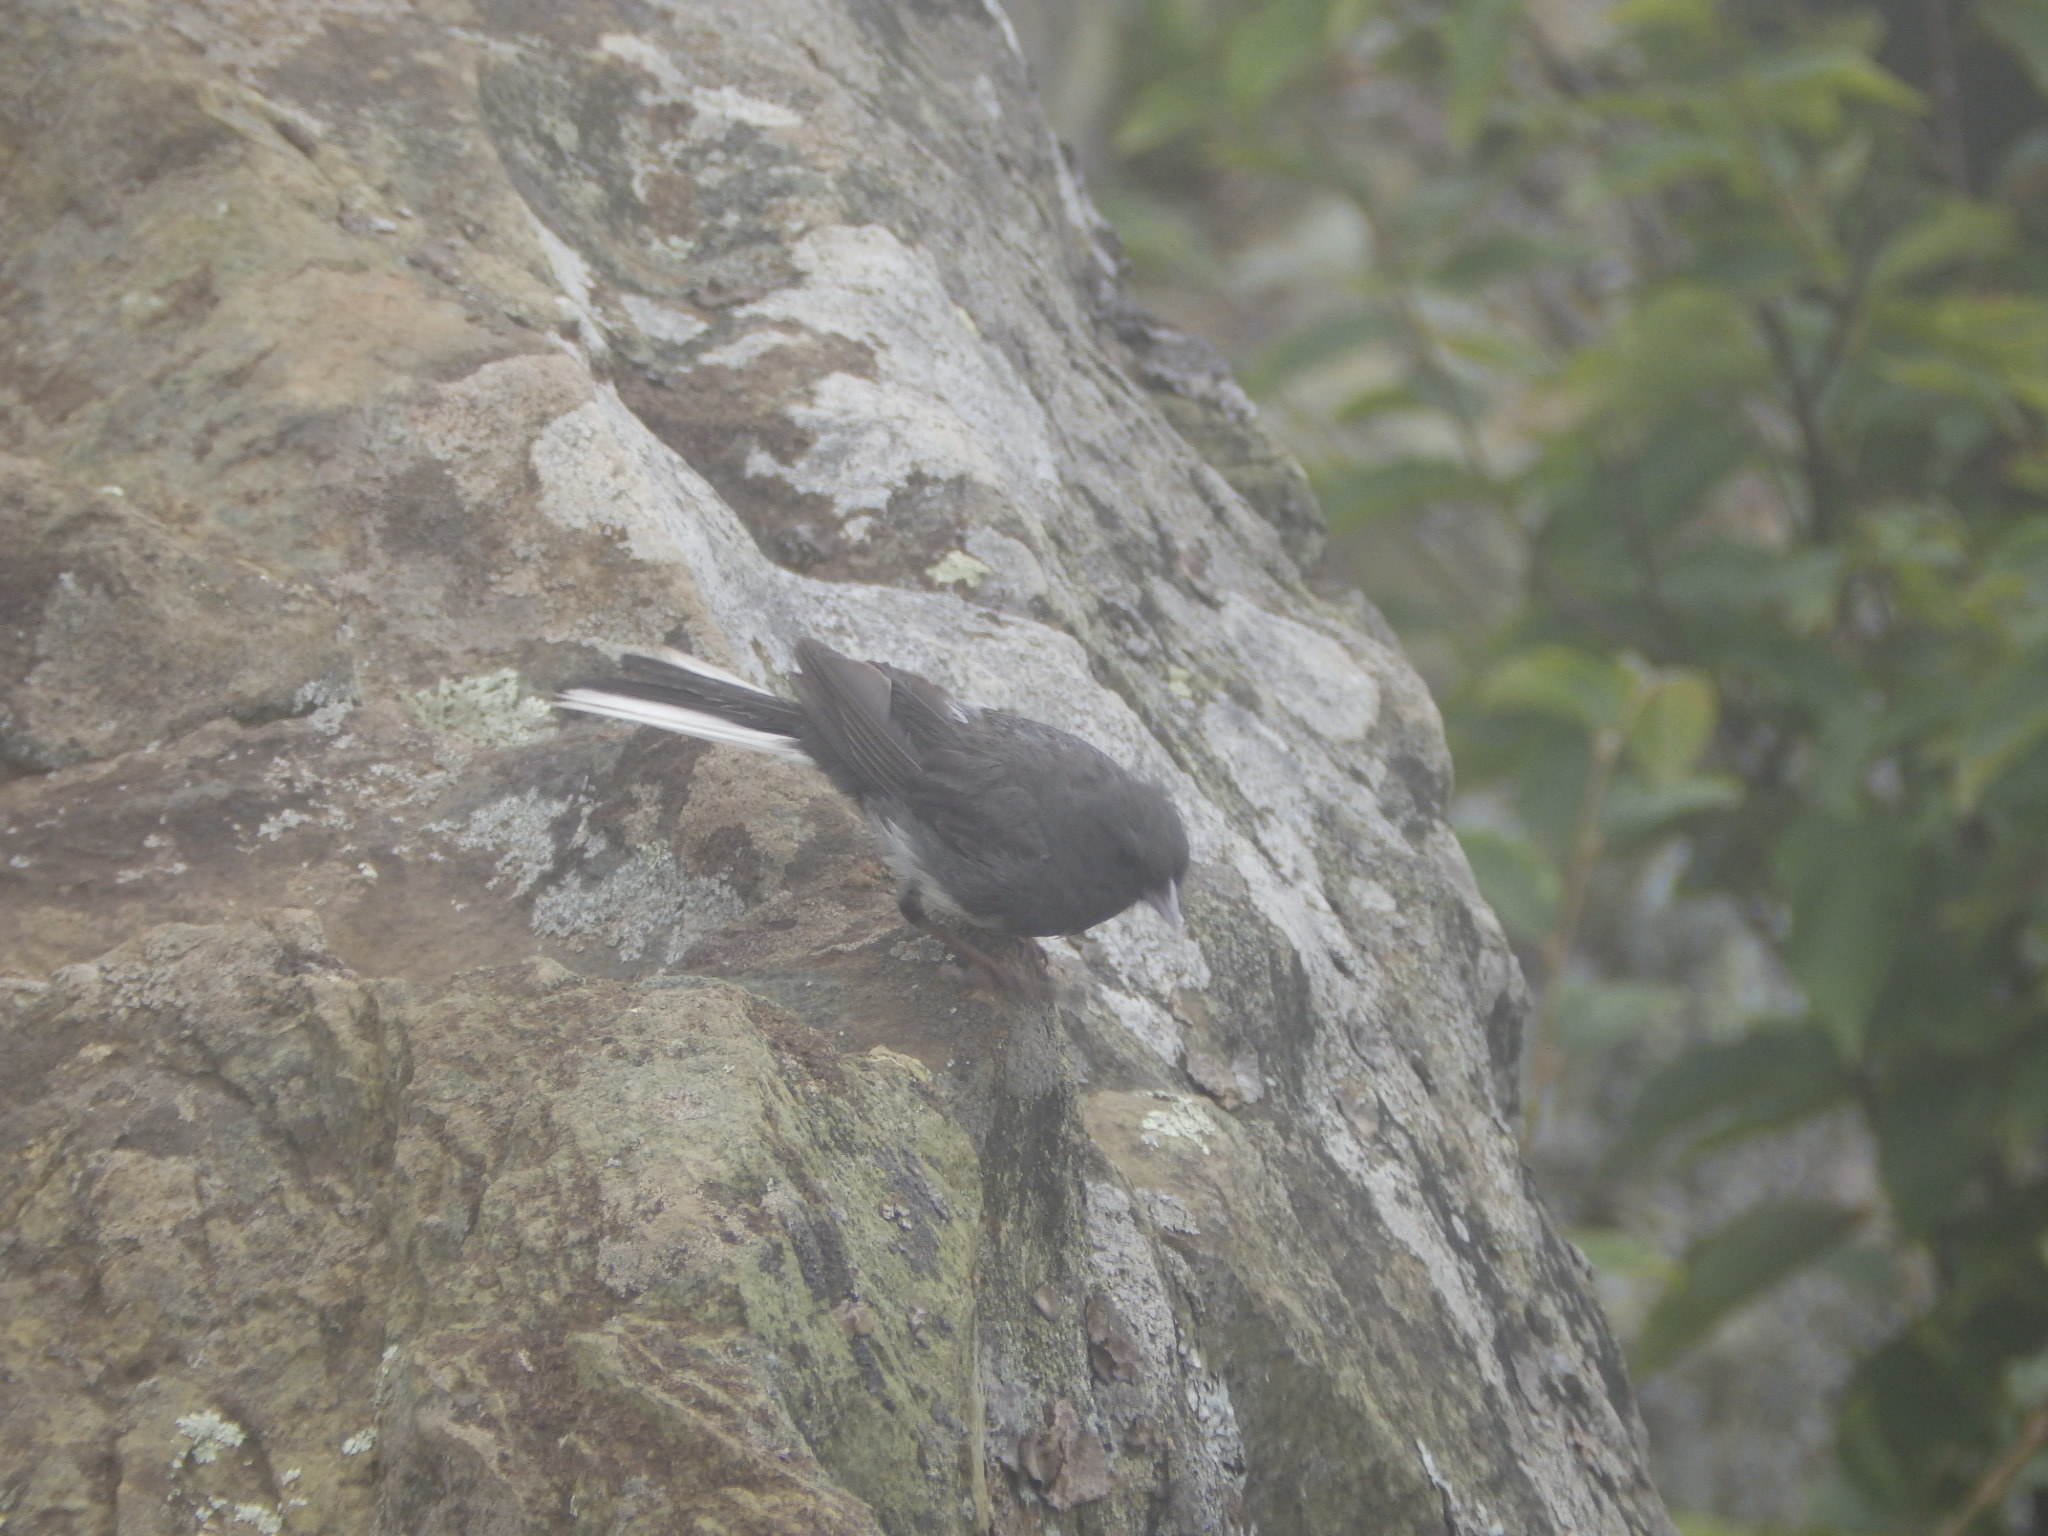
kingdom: Animalia
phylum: Chordata
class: Aves
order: Passeriformes
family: Passerellidae
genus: Junco
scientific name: Junco hyemalis
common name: Dark-eyed junco
